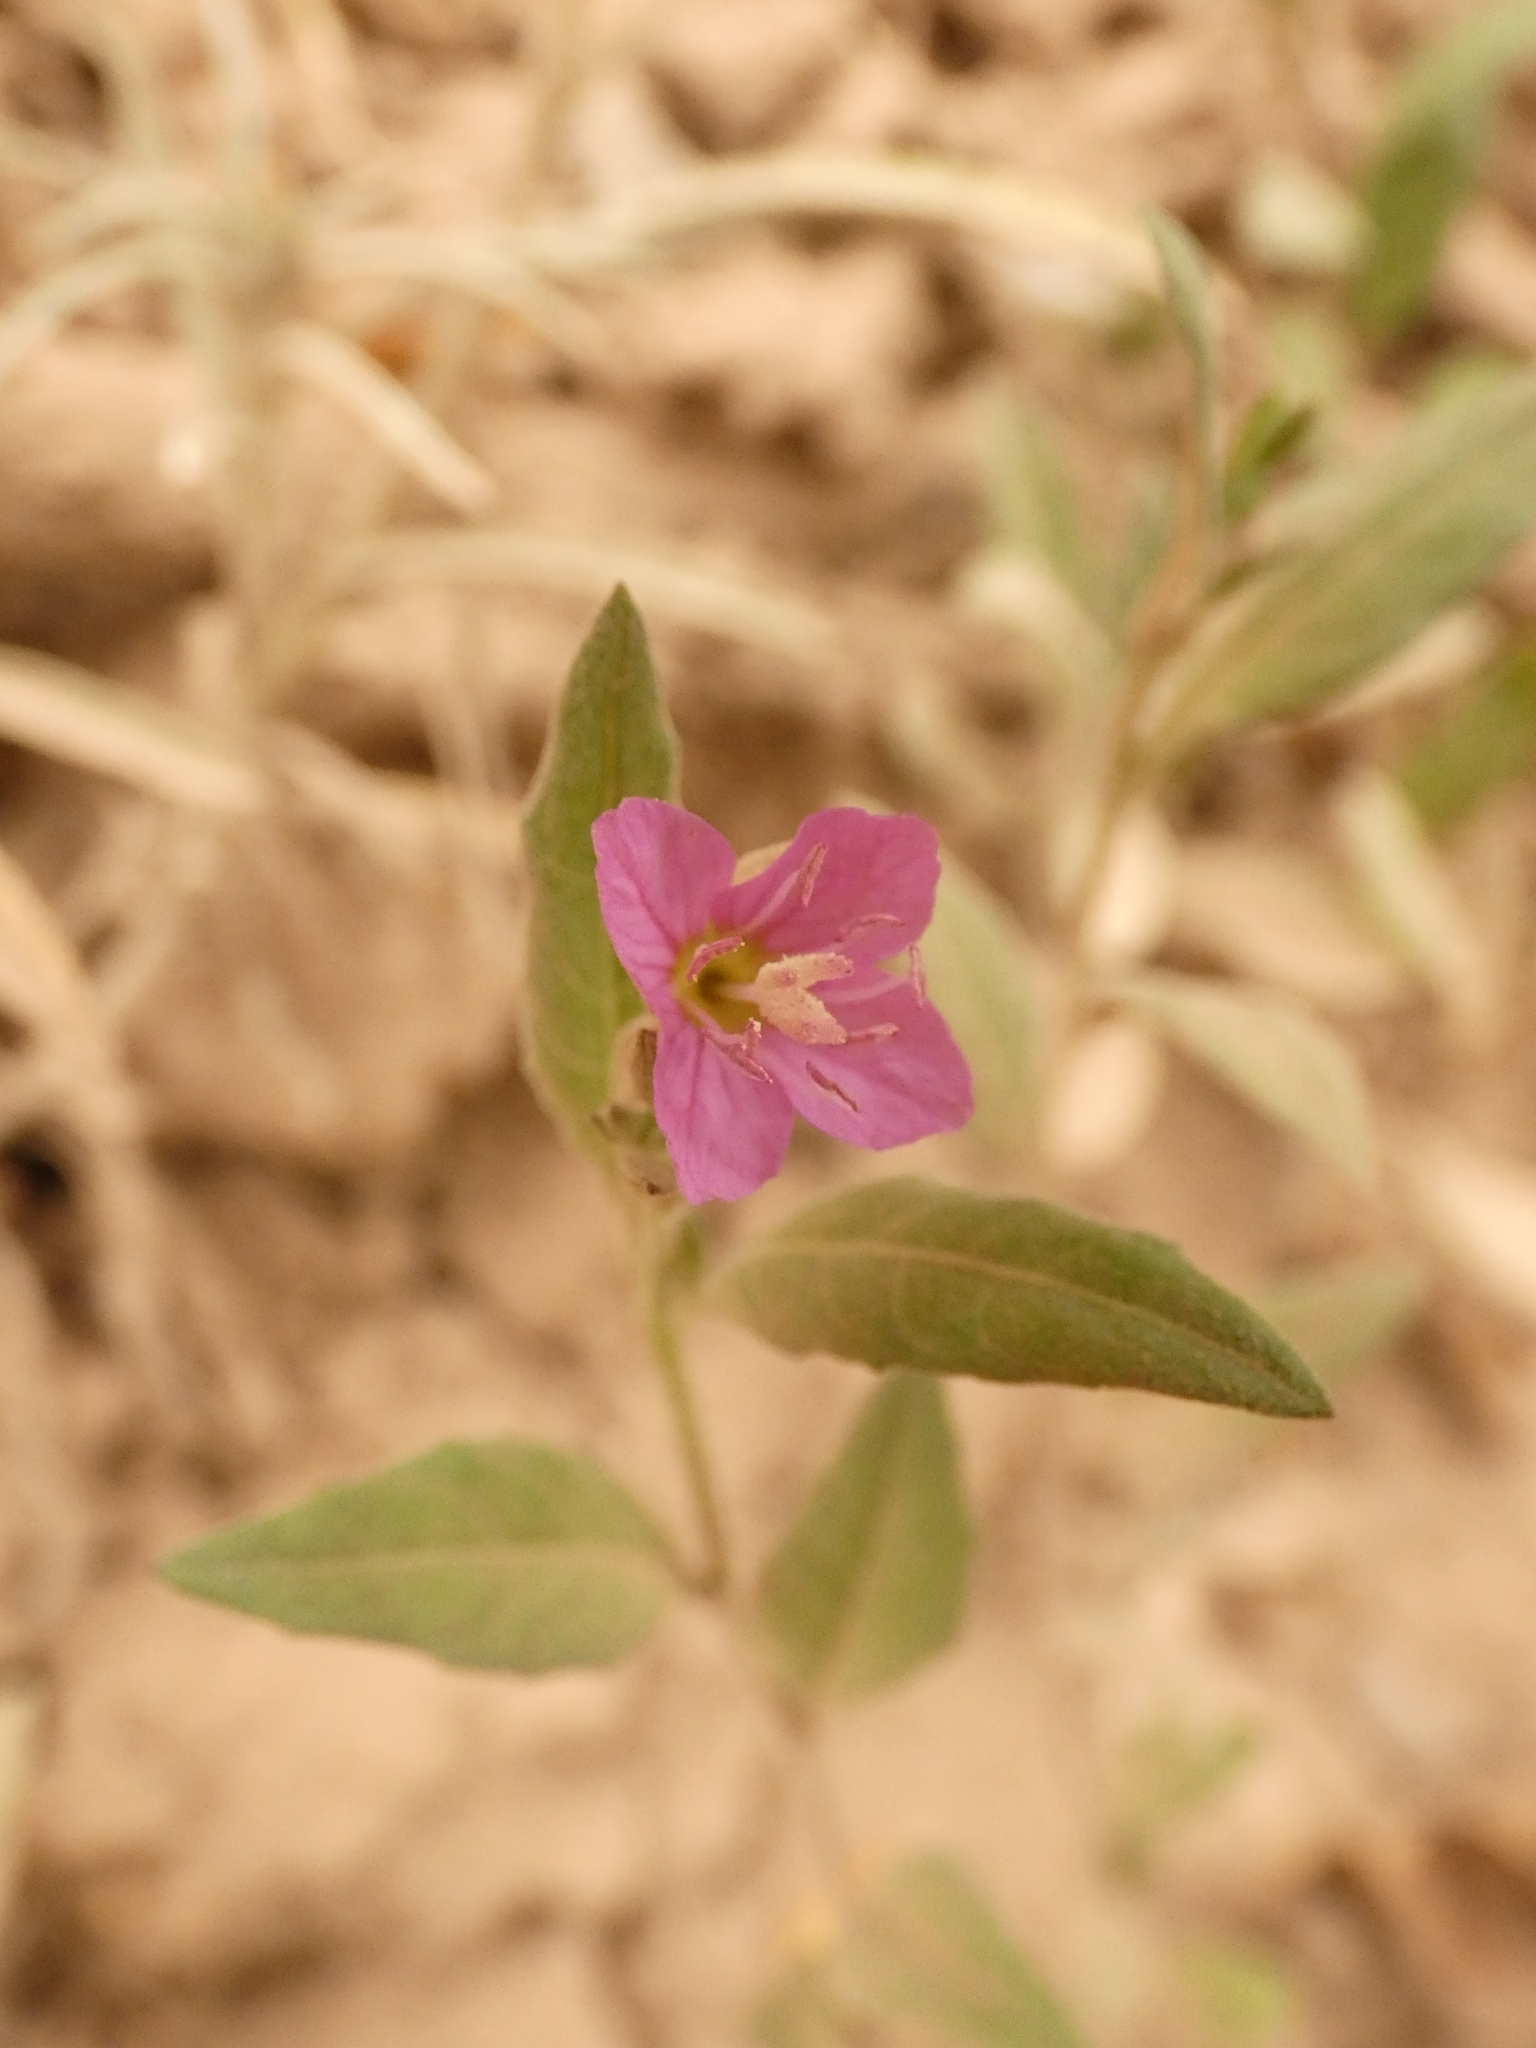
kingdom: Plantae
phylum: Tracheophyta
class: Magnoliopsida
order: Myrtales
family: Onagraceae
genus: Oenothera
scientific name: Oenothera rosea
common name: Rosy evening-primrose
